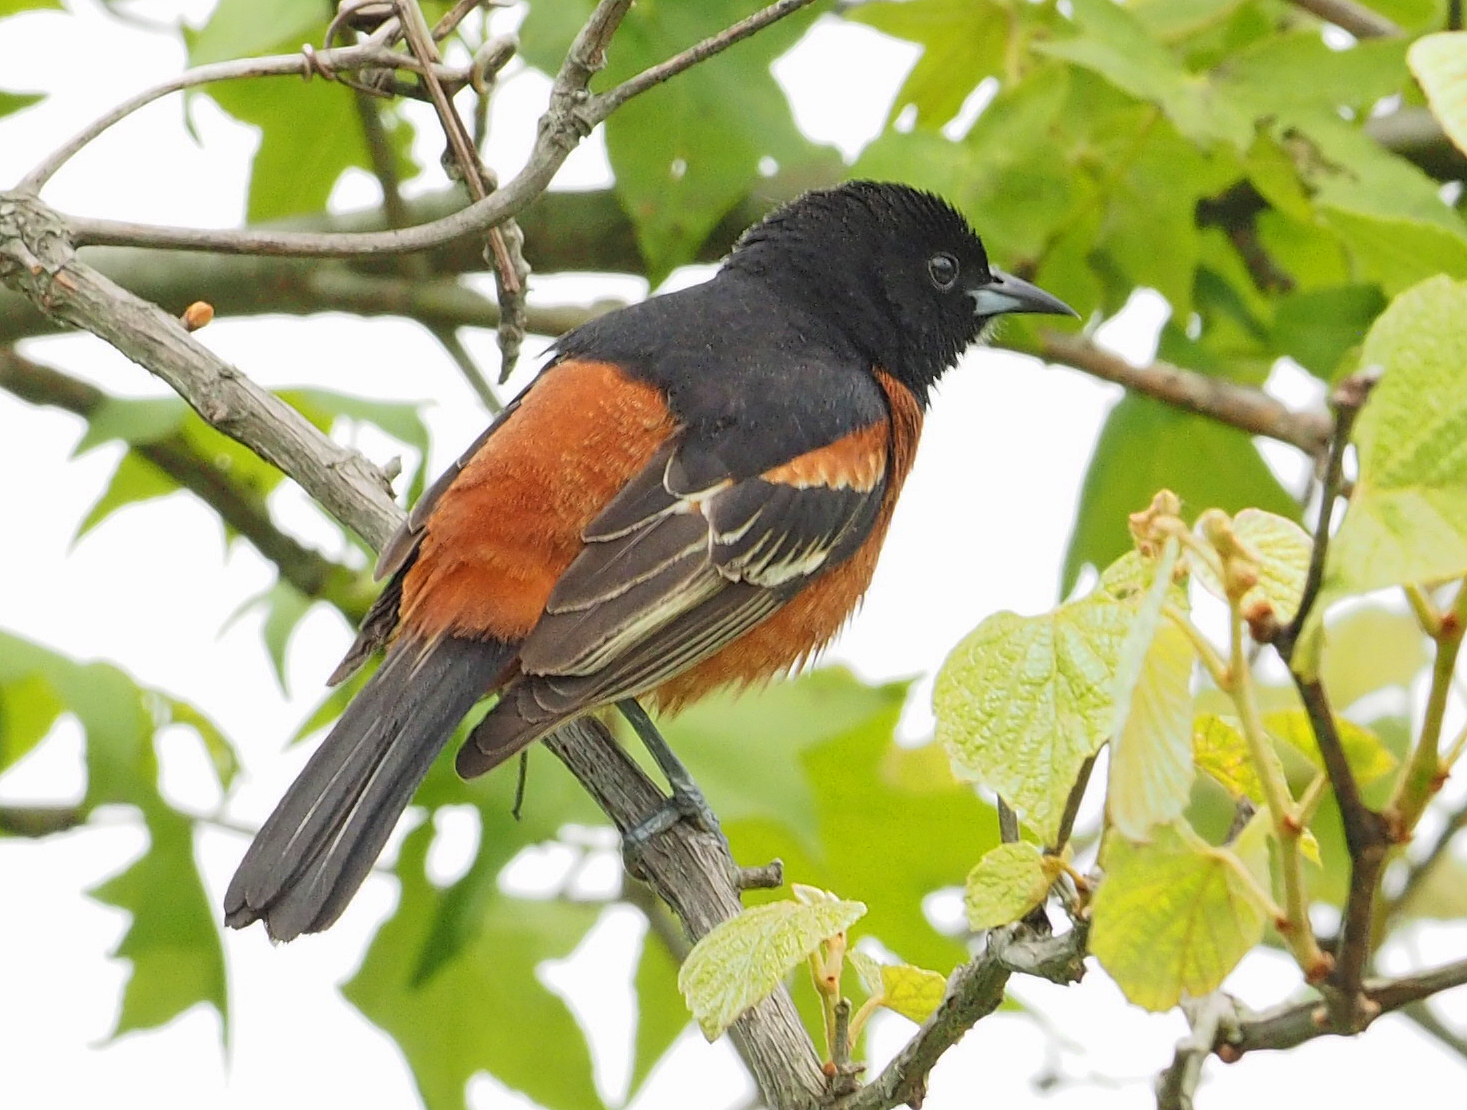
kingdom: Animalia
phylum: Chordata
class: Aves
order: Passeriformes
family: Icteridae
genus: Icterus
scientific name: Icterus spurius
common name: Orchard oriole
